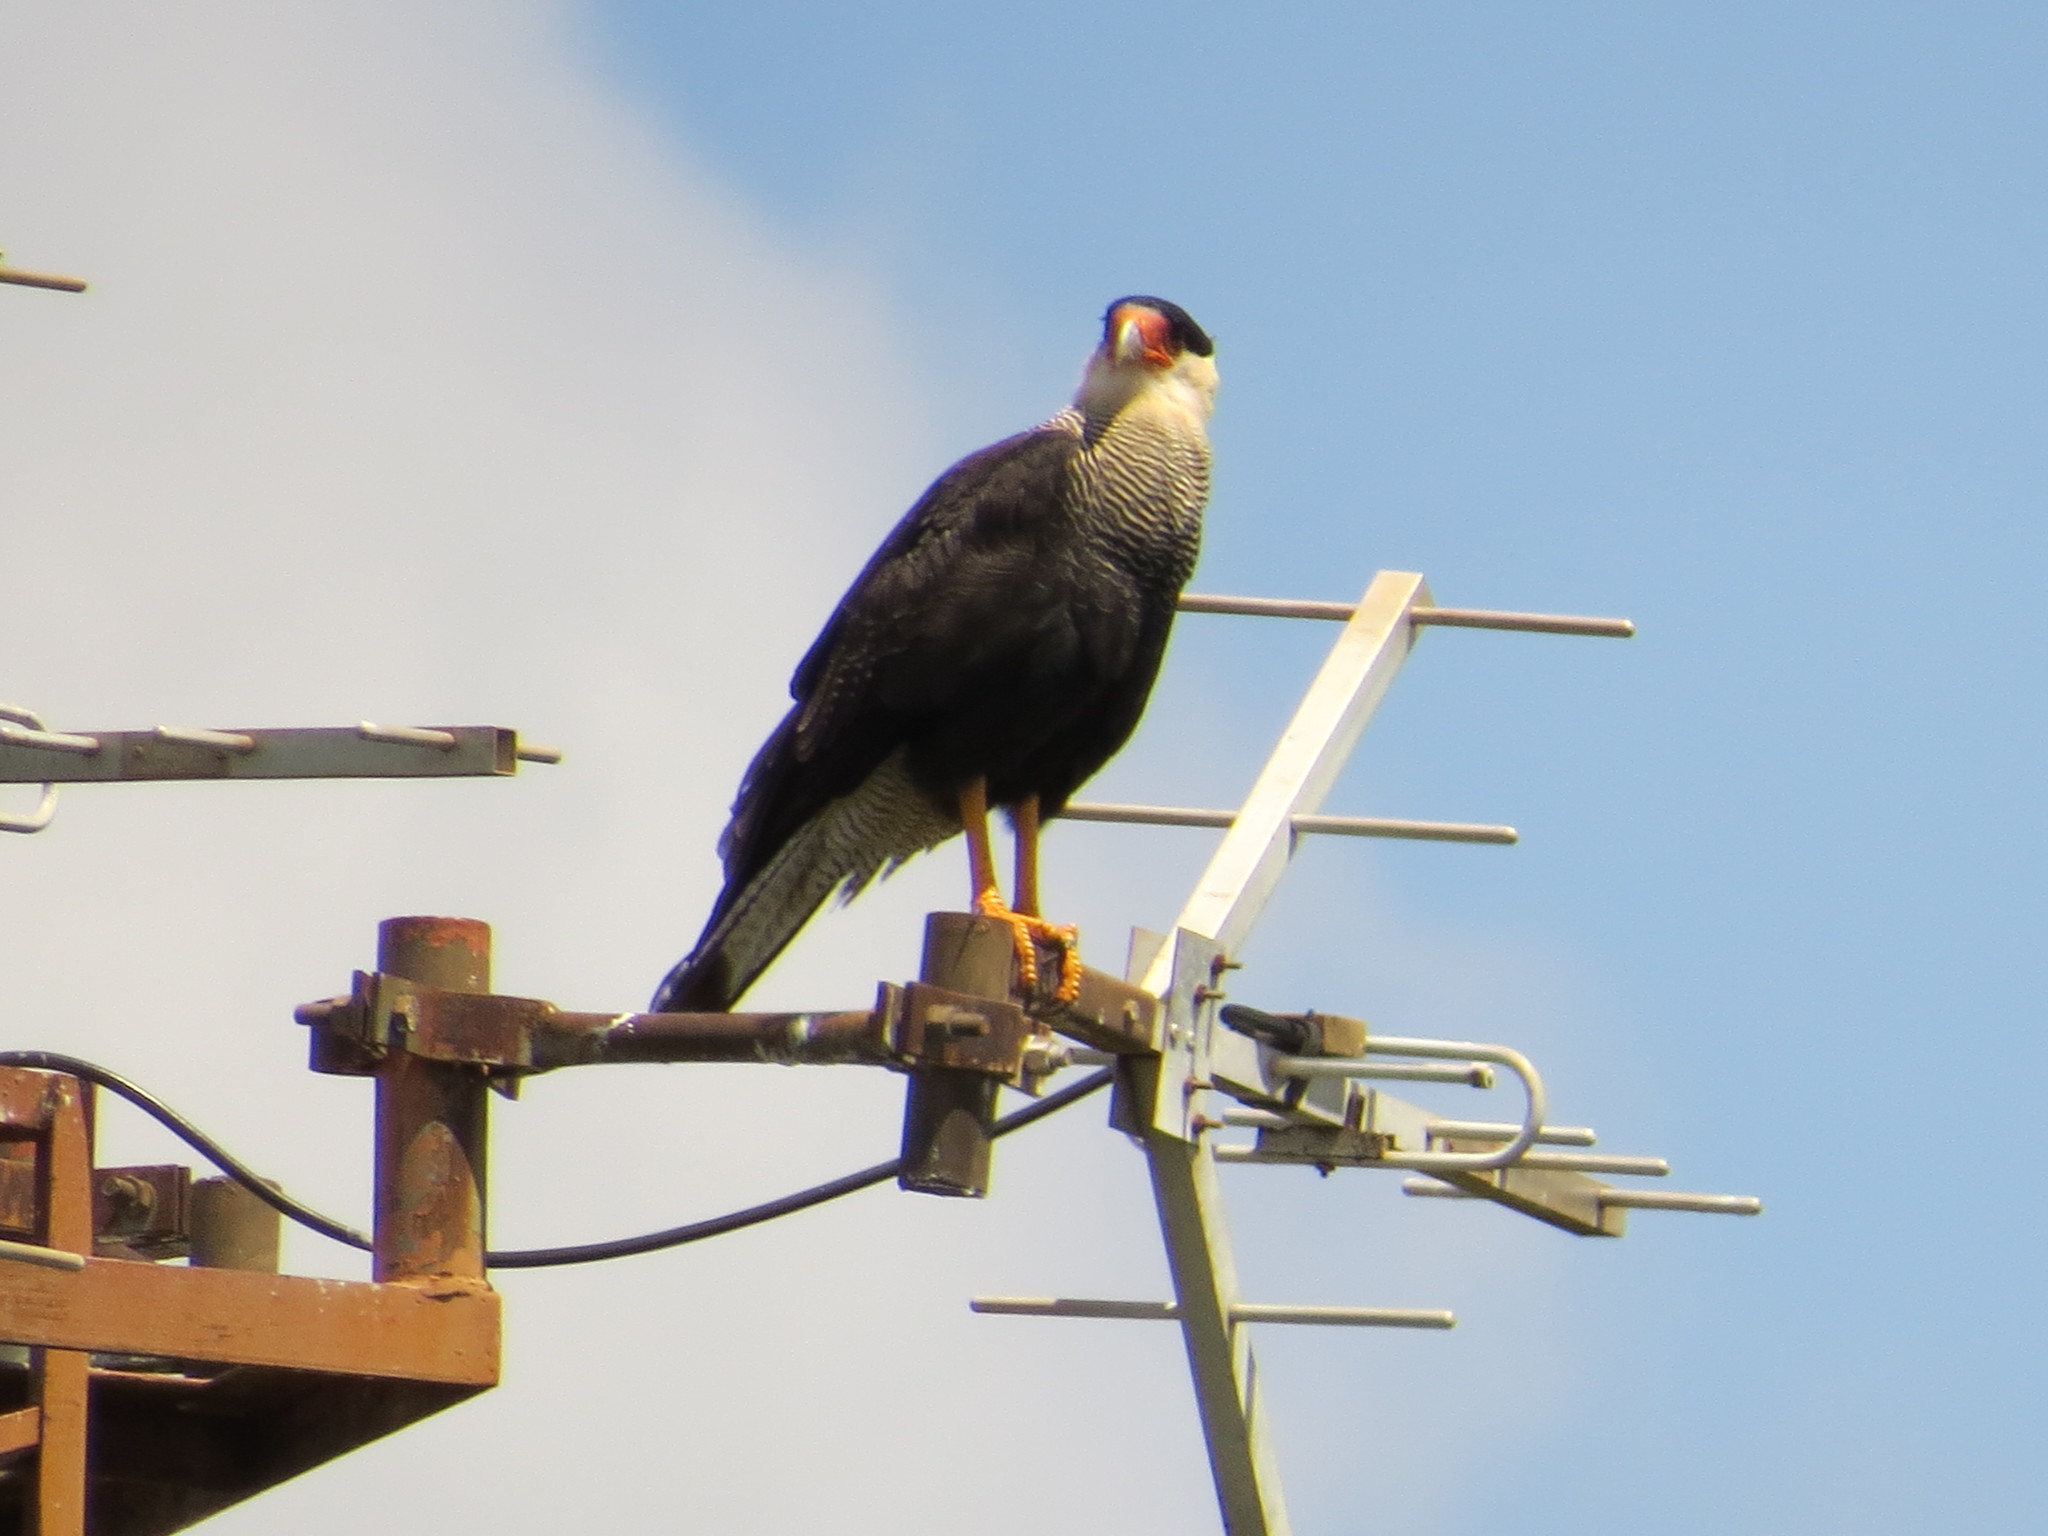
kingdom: Animalia
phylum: Chordata
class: Aves
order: Falconiformes
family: Falconidae
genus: Caracara
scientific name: Caracara plancus
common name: Southern caracara
